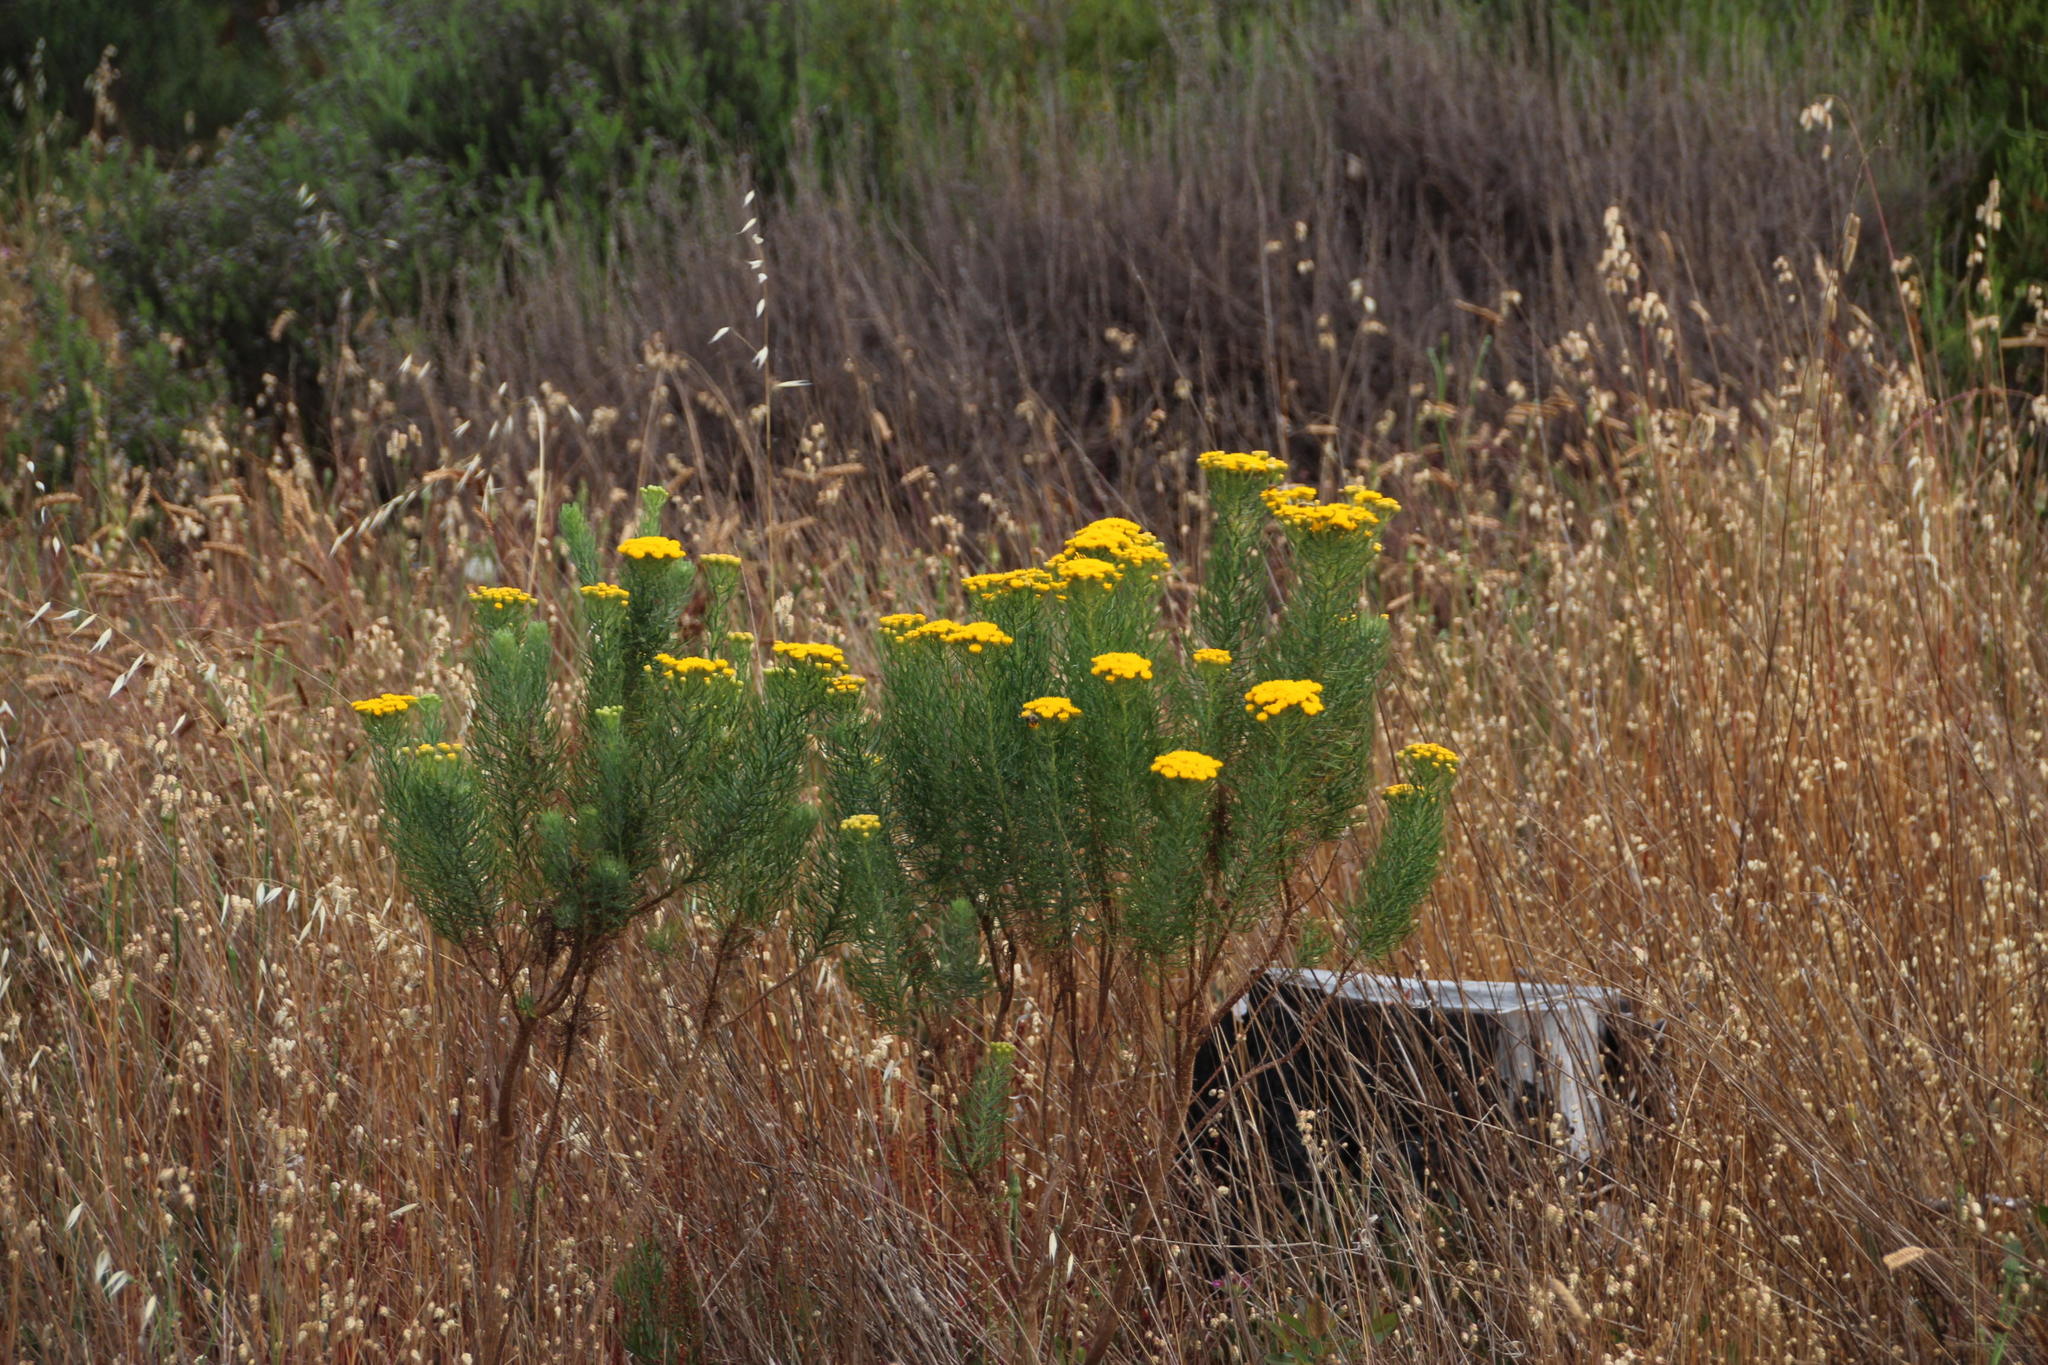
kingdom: Plantae
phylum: Tracheophyta
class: Magnoliopsida
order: Asterales
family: Asteraceae
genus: Hymenolepis
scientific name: Hymenolepis crithmifolia
